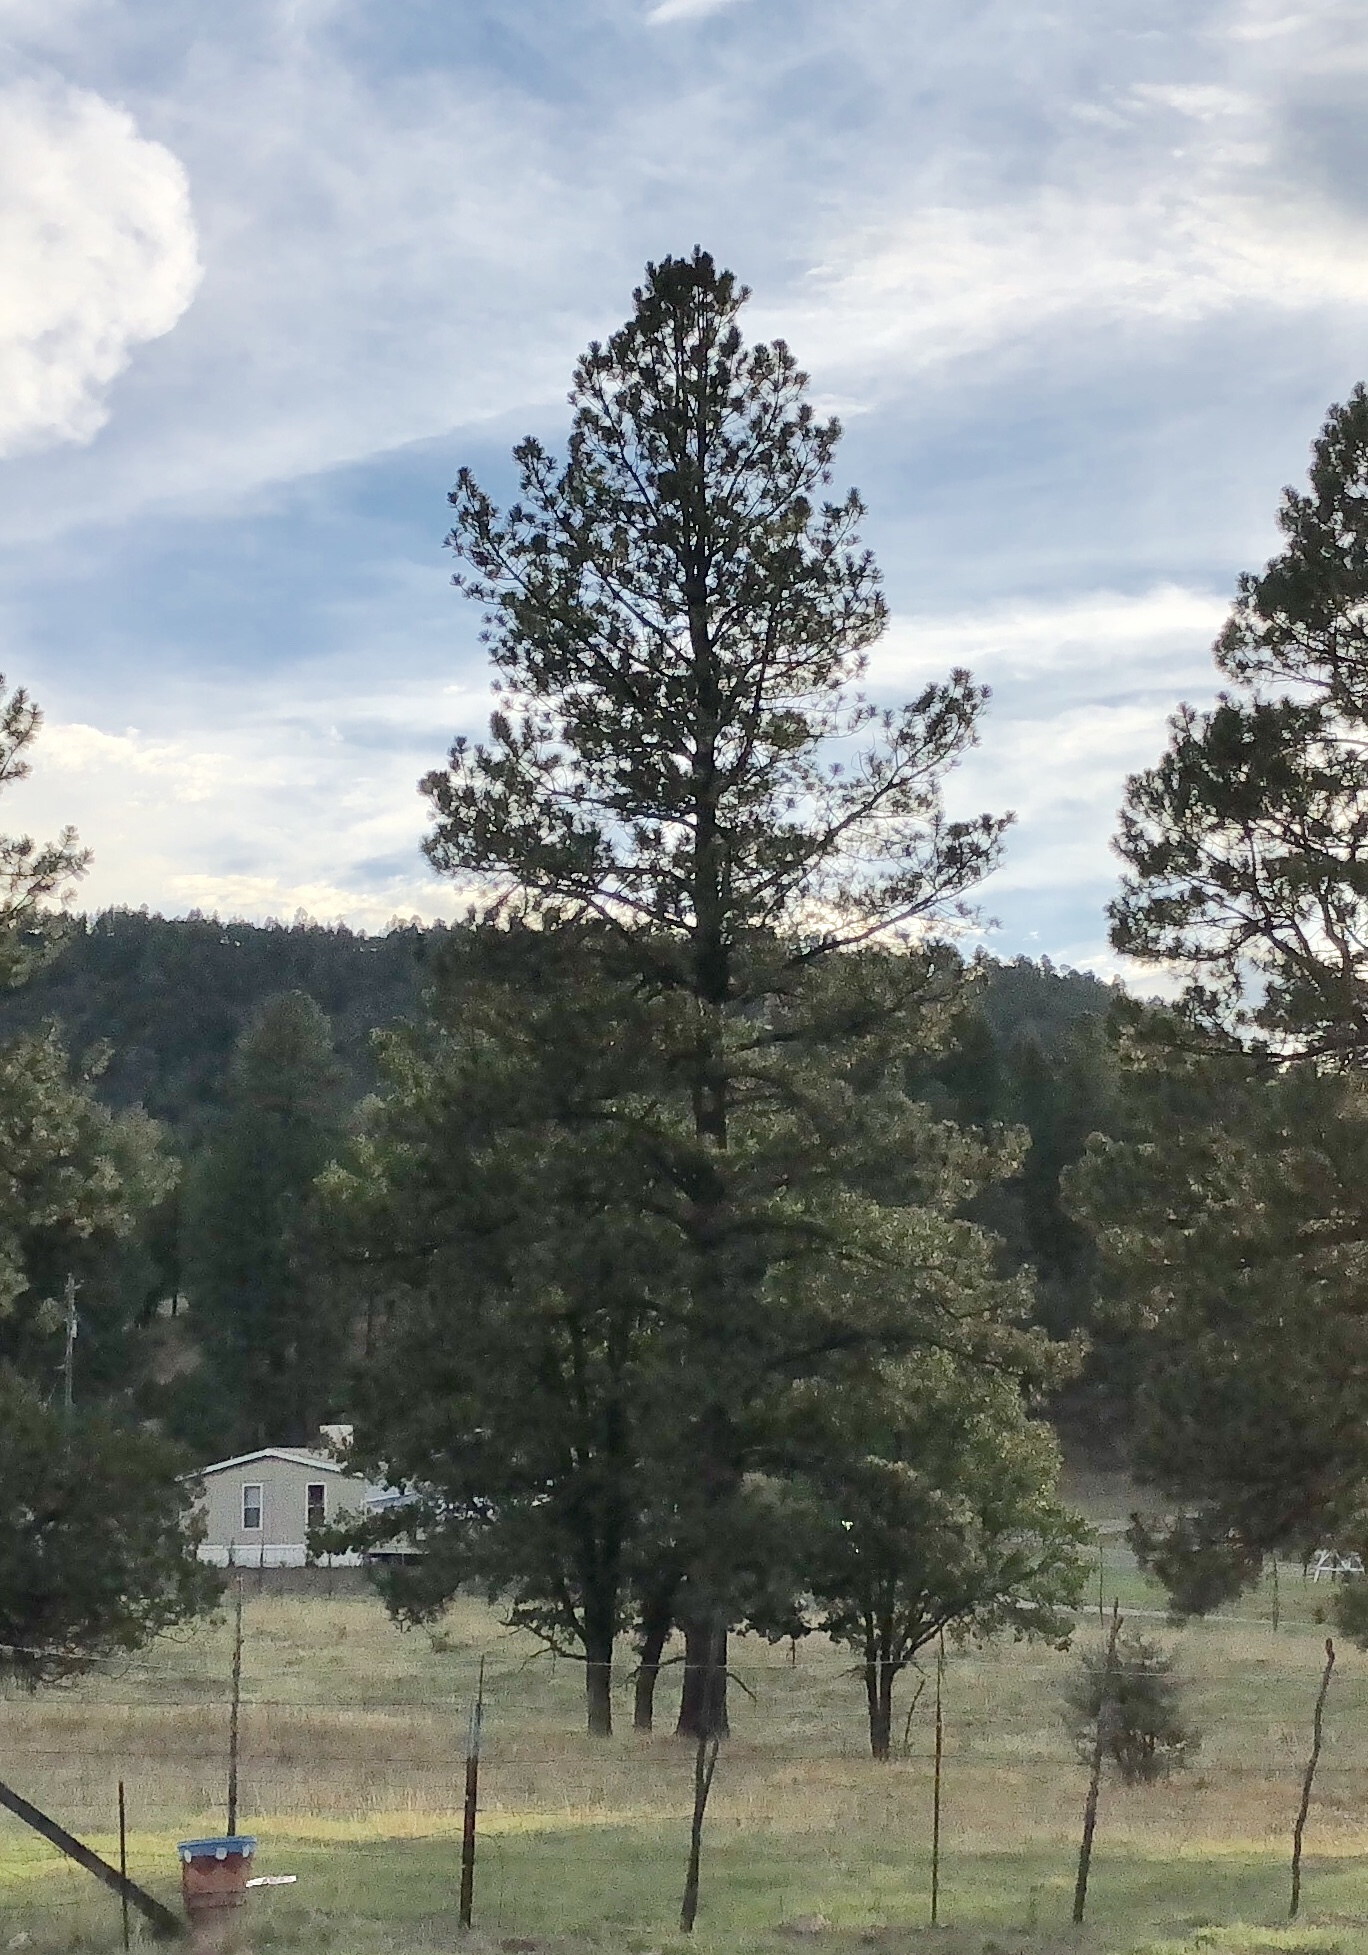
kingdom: Plantae
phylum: Tracheophyta
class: Pinopsida
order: Pinales
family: Pinaceae
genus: Pinus
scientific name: Pinus ponderosa
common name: Western yellow-pine
